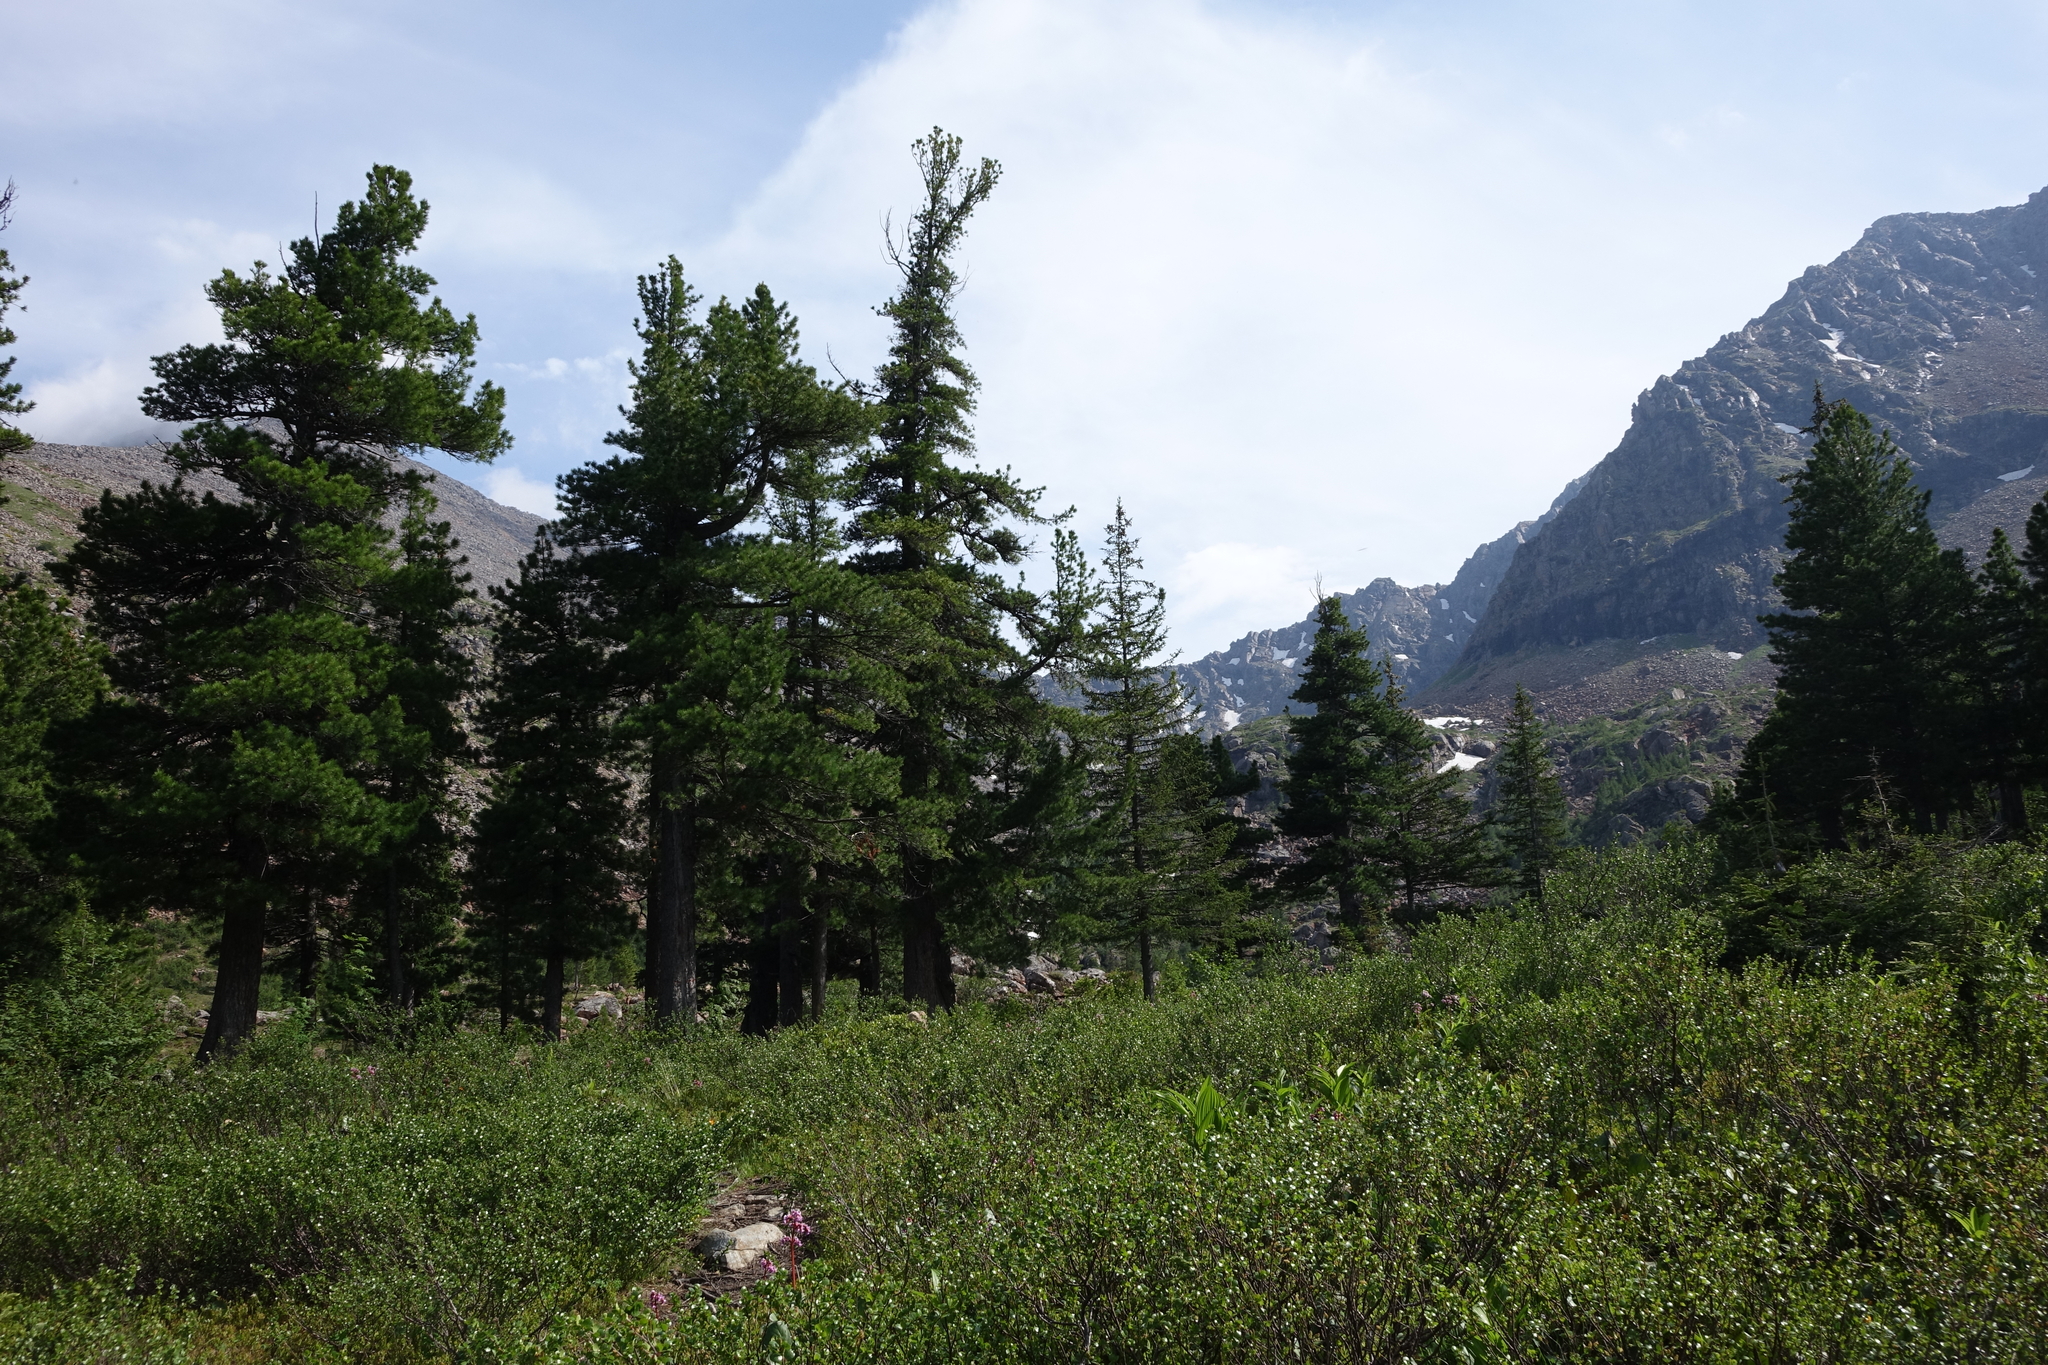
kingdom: Plantae
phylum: Tracheophyta
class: Pinopsida
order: Pinales
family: Pinaceae
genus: Pinus
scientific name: Pinus sibirica
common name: Siberian pine
